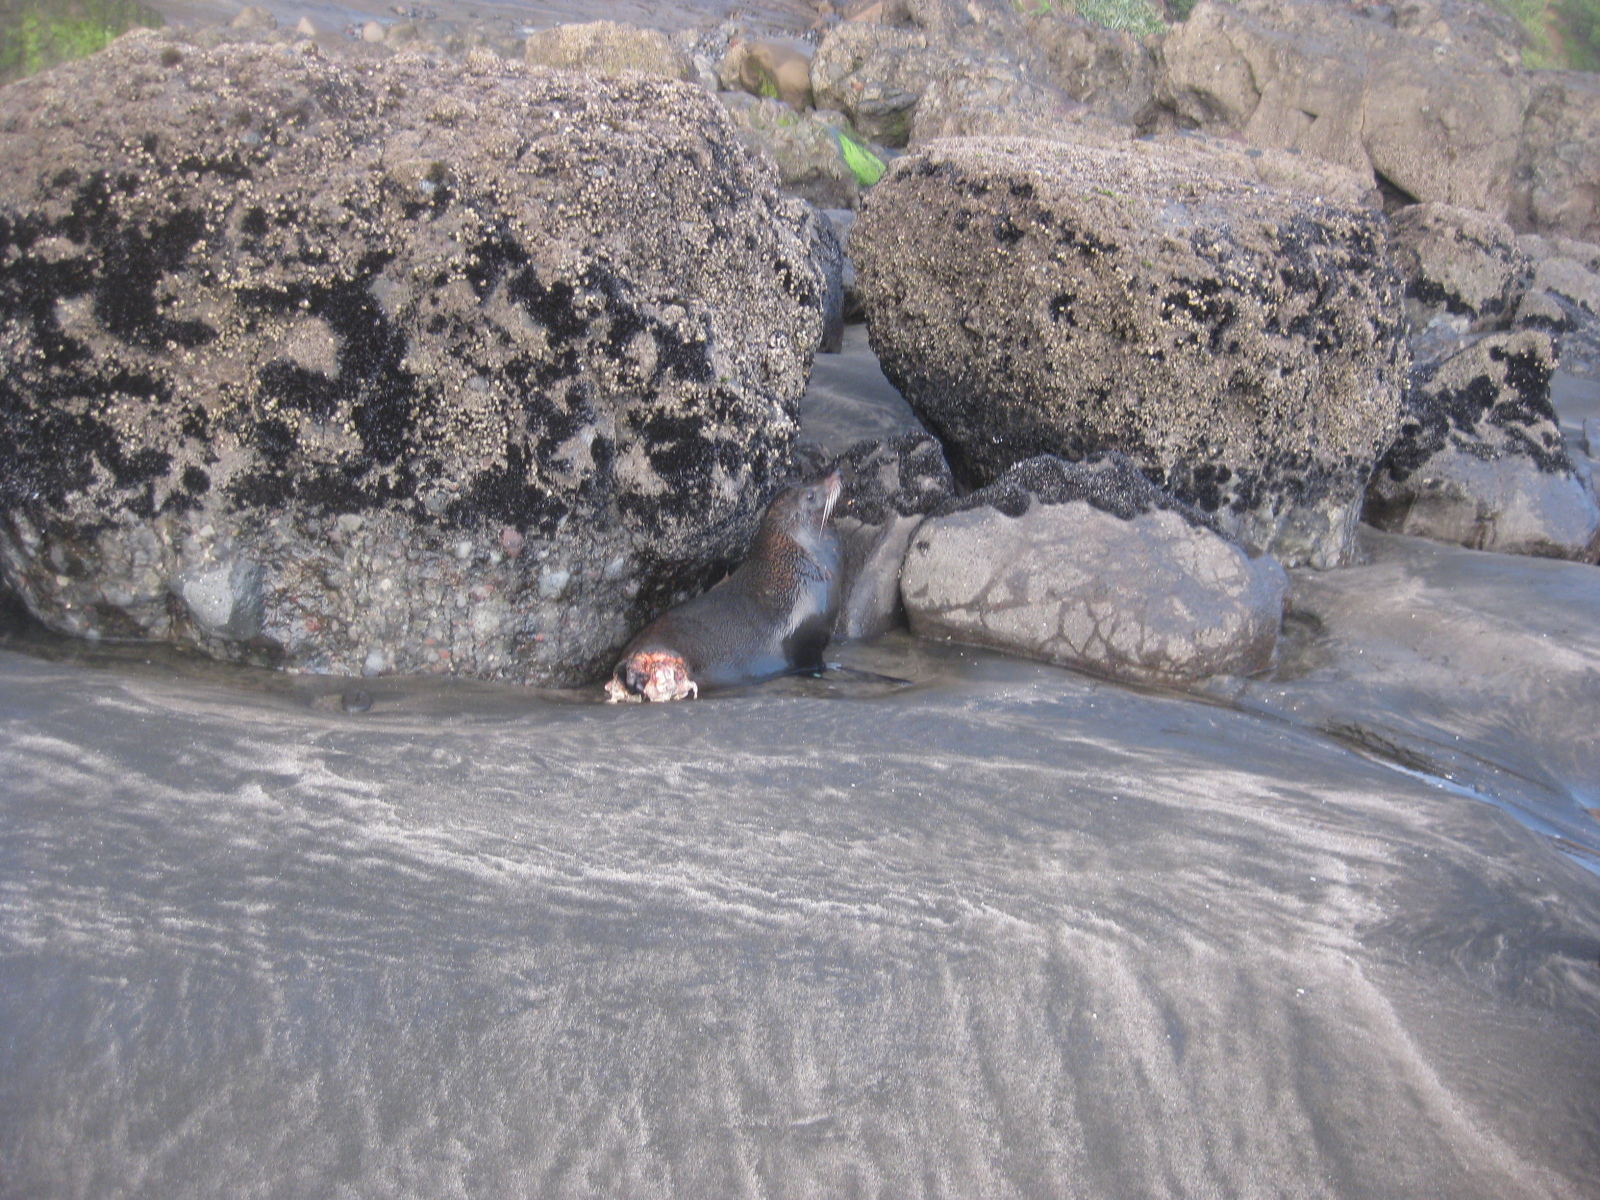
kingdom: Animalia
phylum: Chordata
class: Mammalia
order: Carnivora
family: Otariidae
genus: Arctocephalus
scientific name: Arctocephalus forsteri
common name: New zealand fur seal
